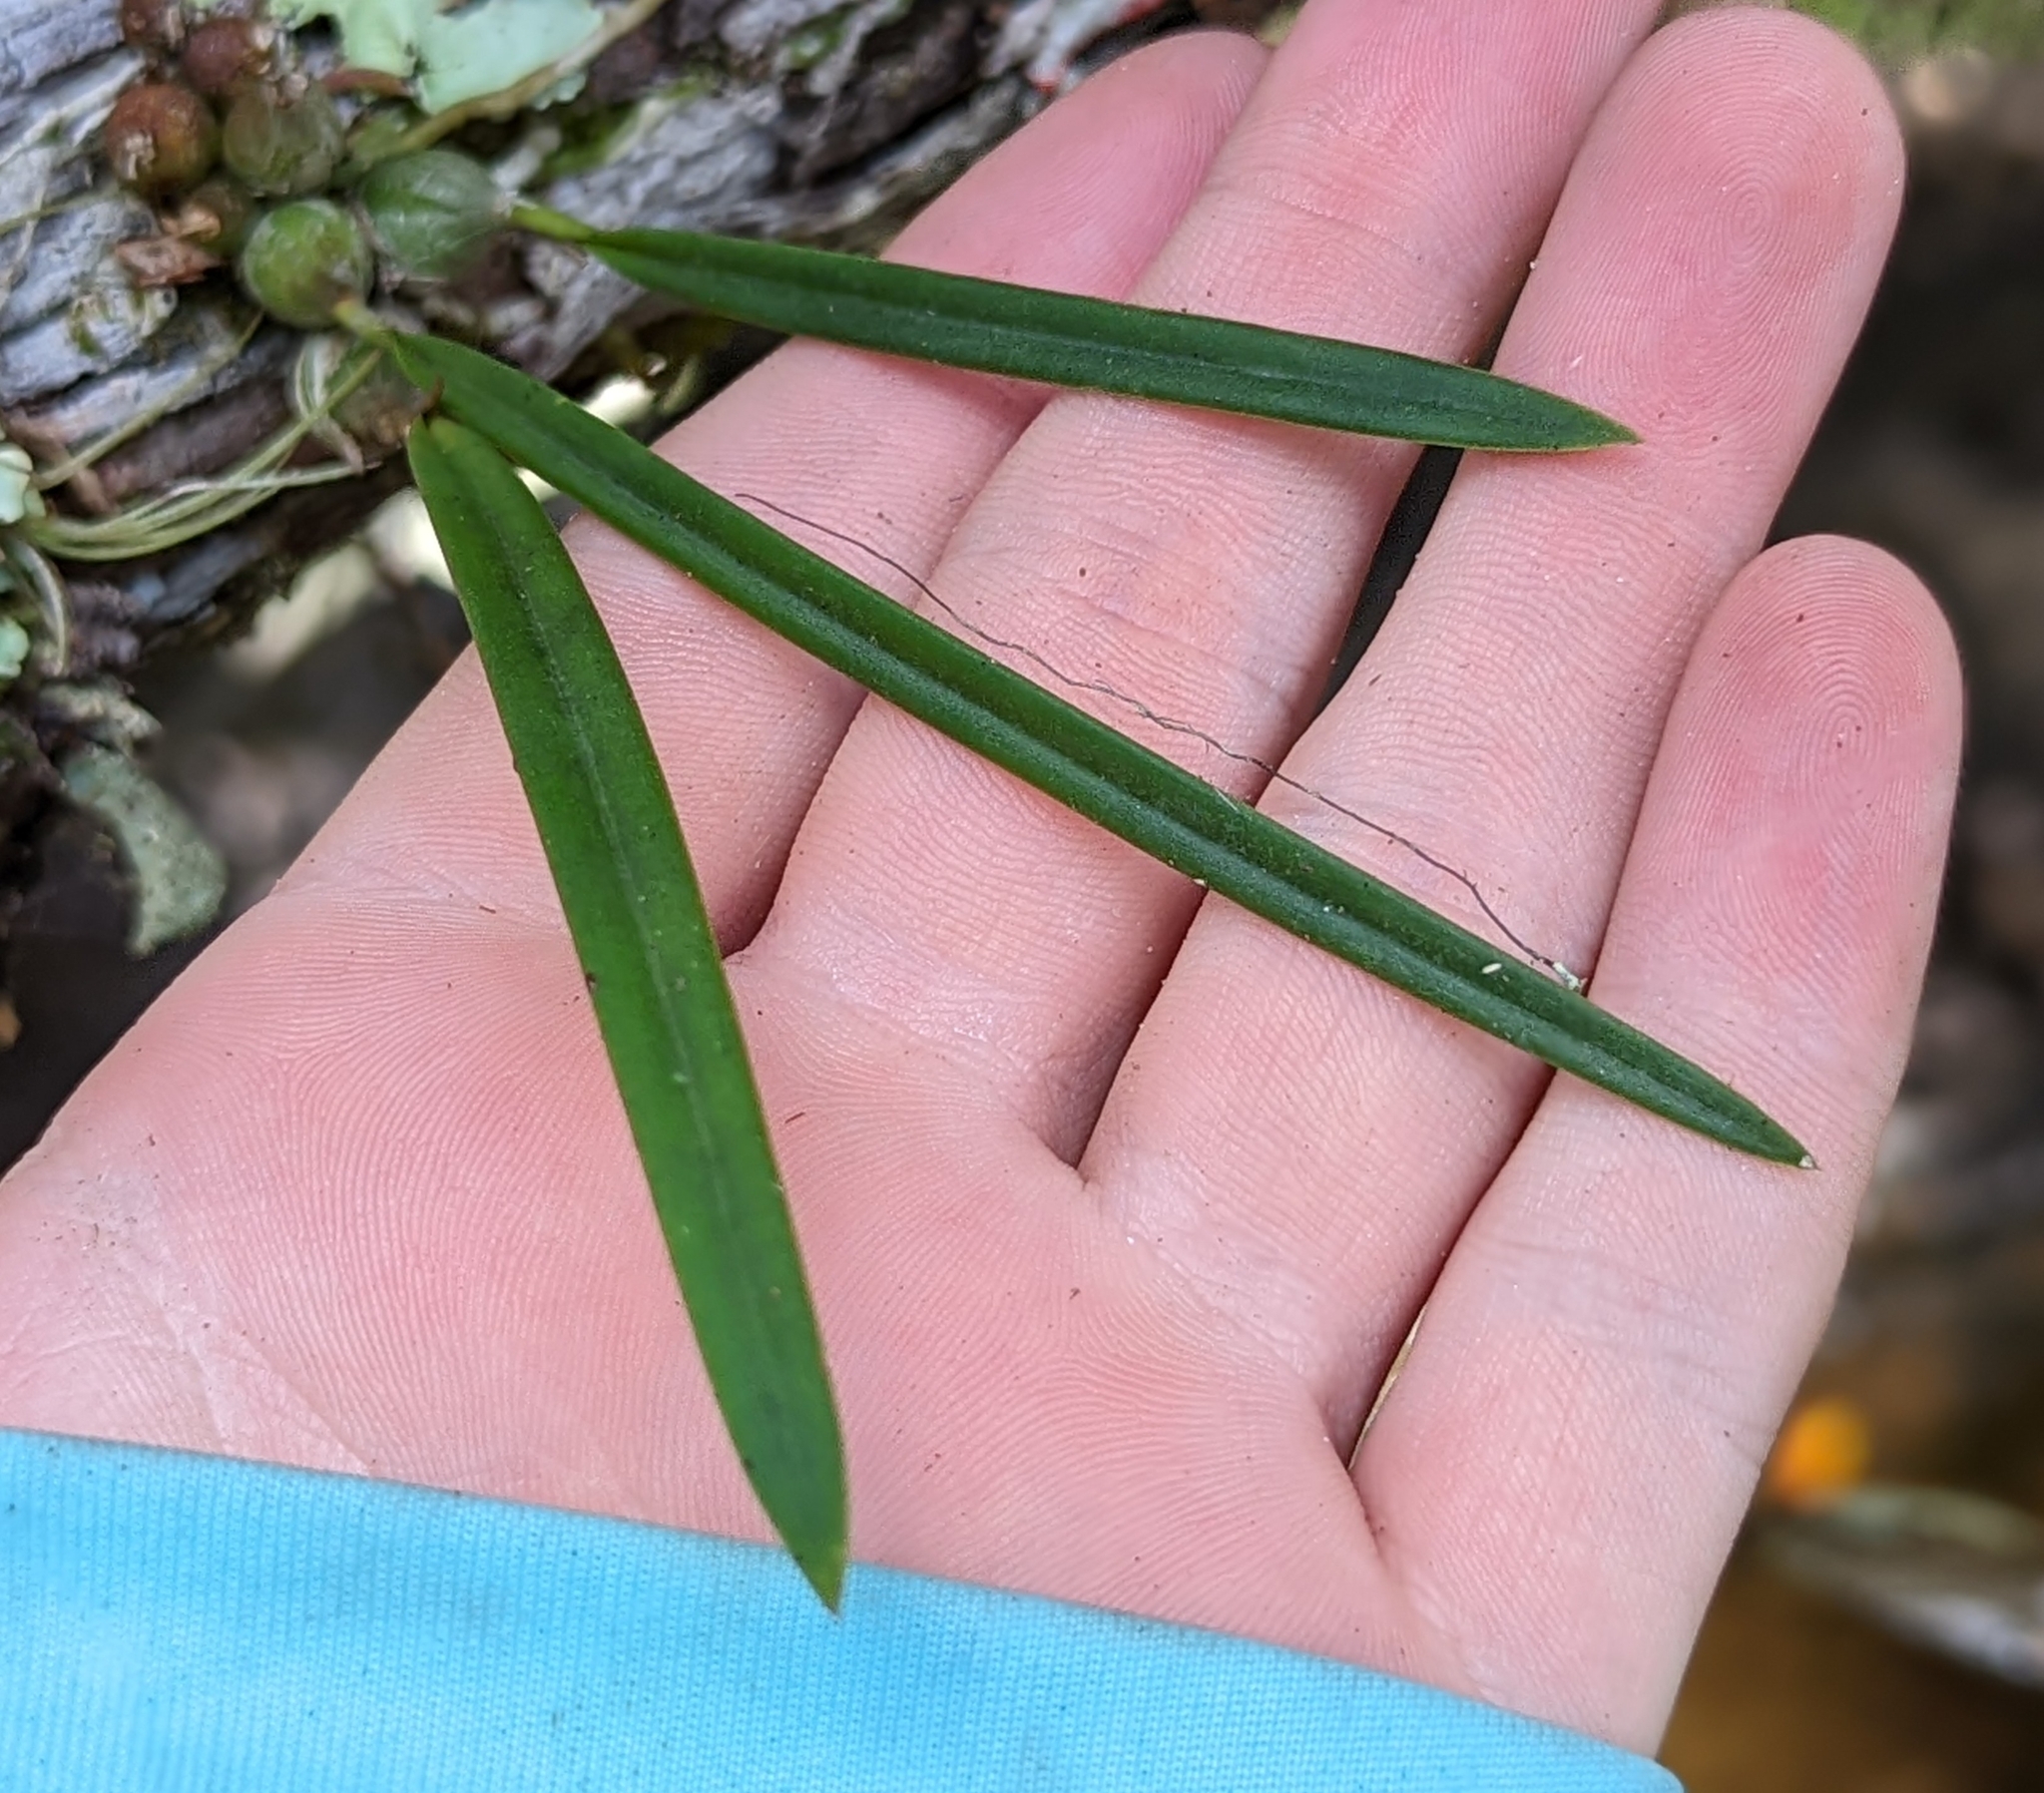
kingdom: Plantae
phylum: Tracheophyta
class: Liliopsida
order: Asparagales
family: Orchidaceae
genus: Encyclia
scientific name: Encyclia tampensis
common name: Florida butterfly orchid
